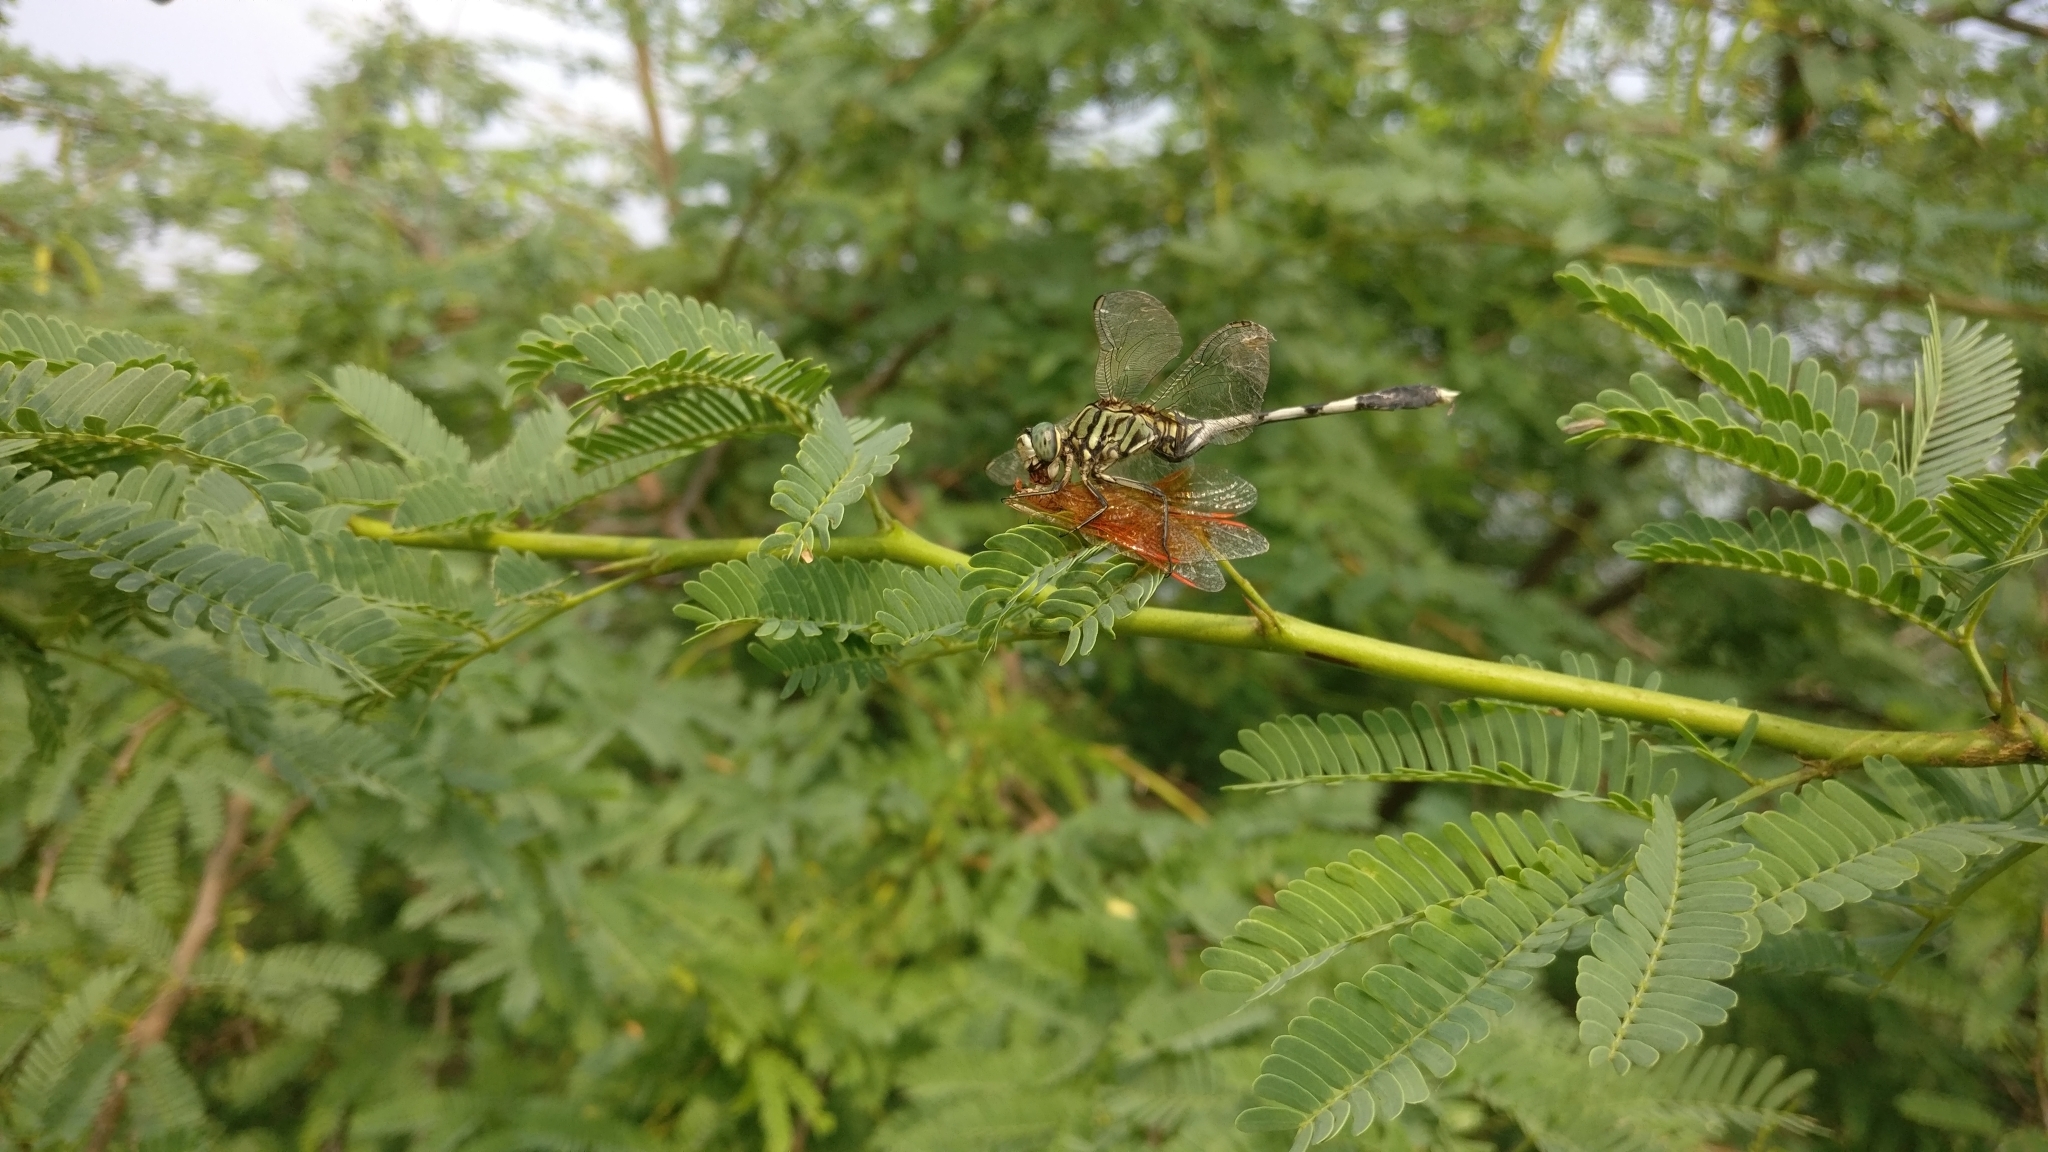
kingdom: Animalia
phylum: Arthropoda
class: Insecta
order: Odonata
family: Libellulidae
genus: Orthetrum
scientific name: Orthetrum sabina
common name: Slender skimmer
